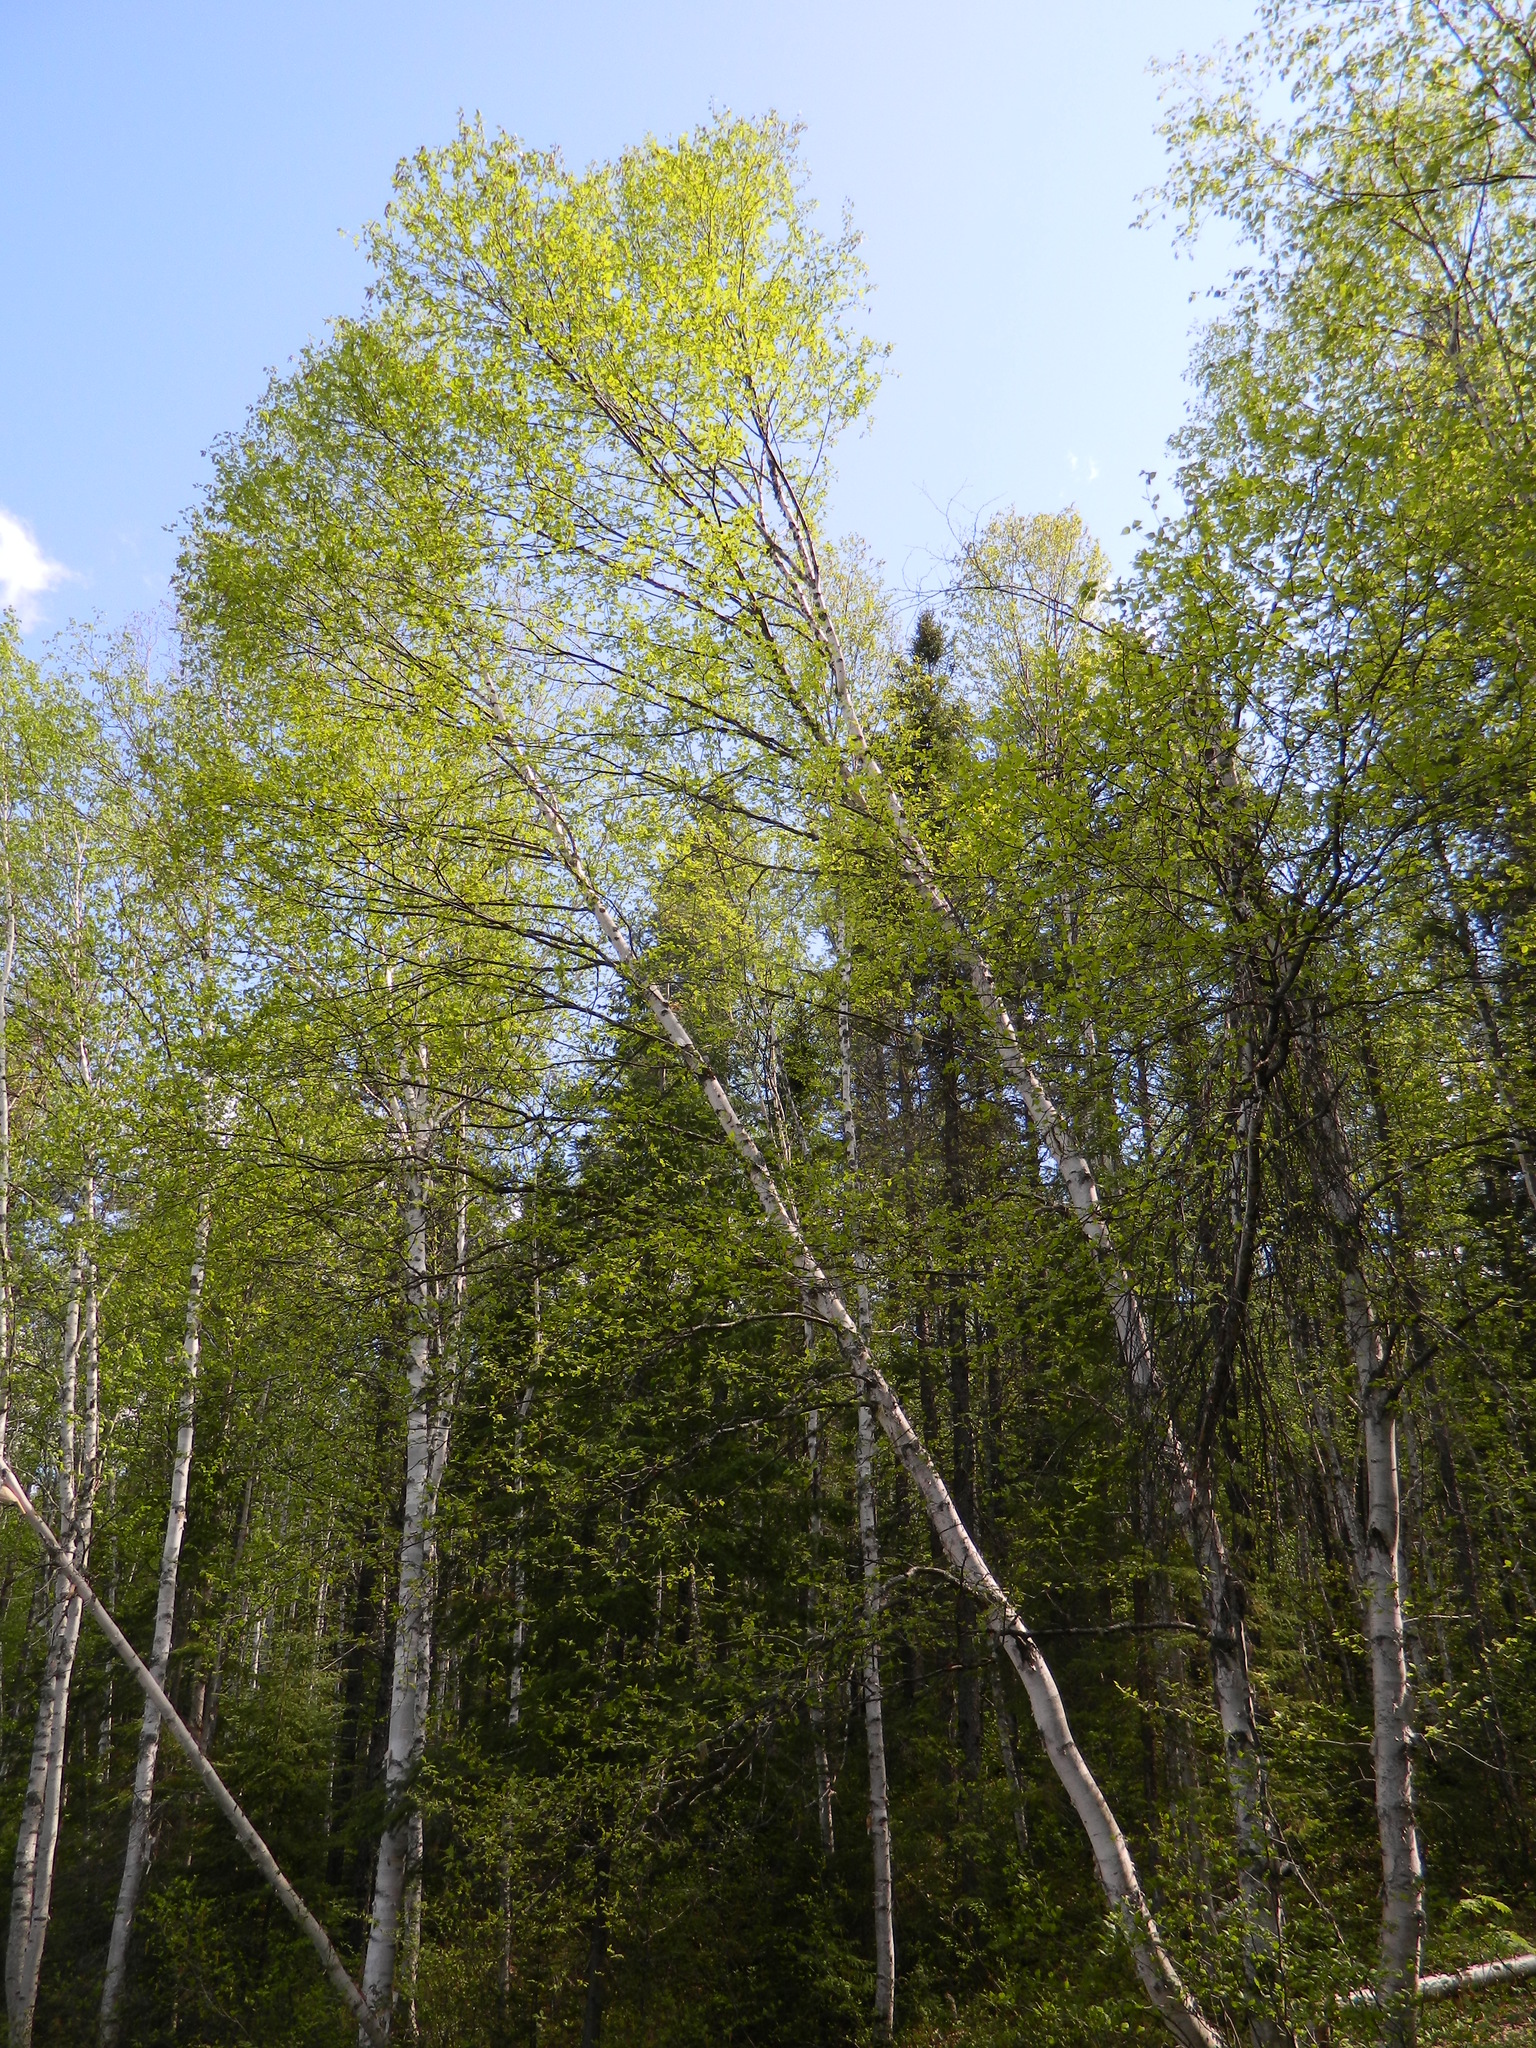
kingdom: Plantae
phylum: Tracheophyta
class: Magnoliopsida
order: Fagales
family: Betulaceae
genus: Betula
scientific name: Betula papyrifera
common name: Paper birch
